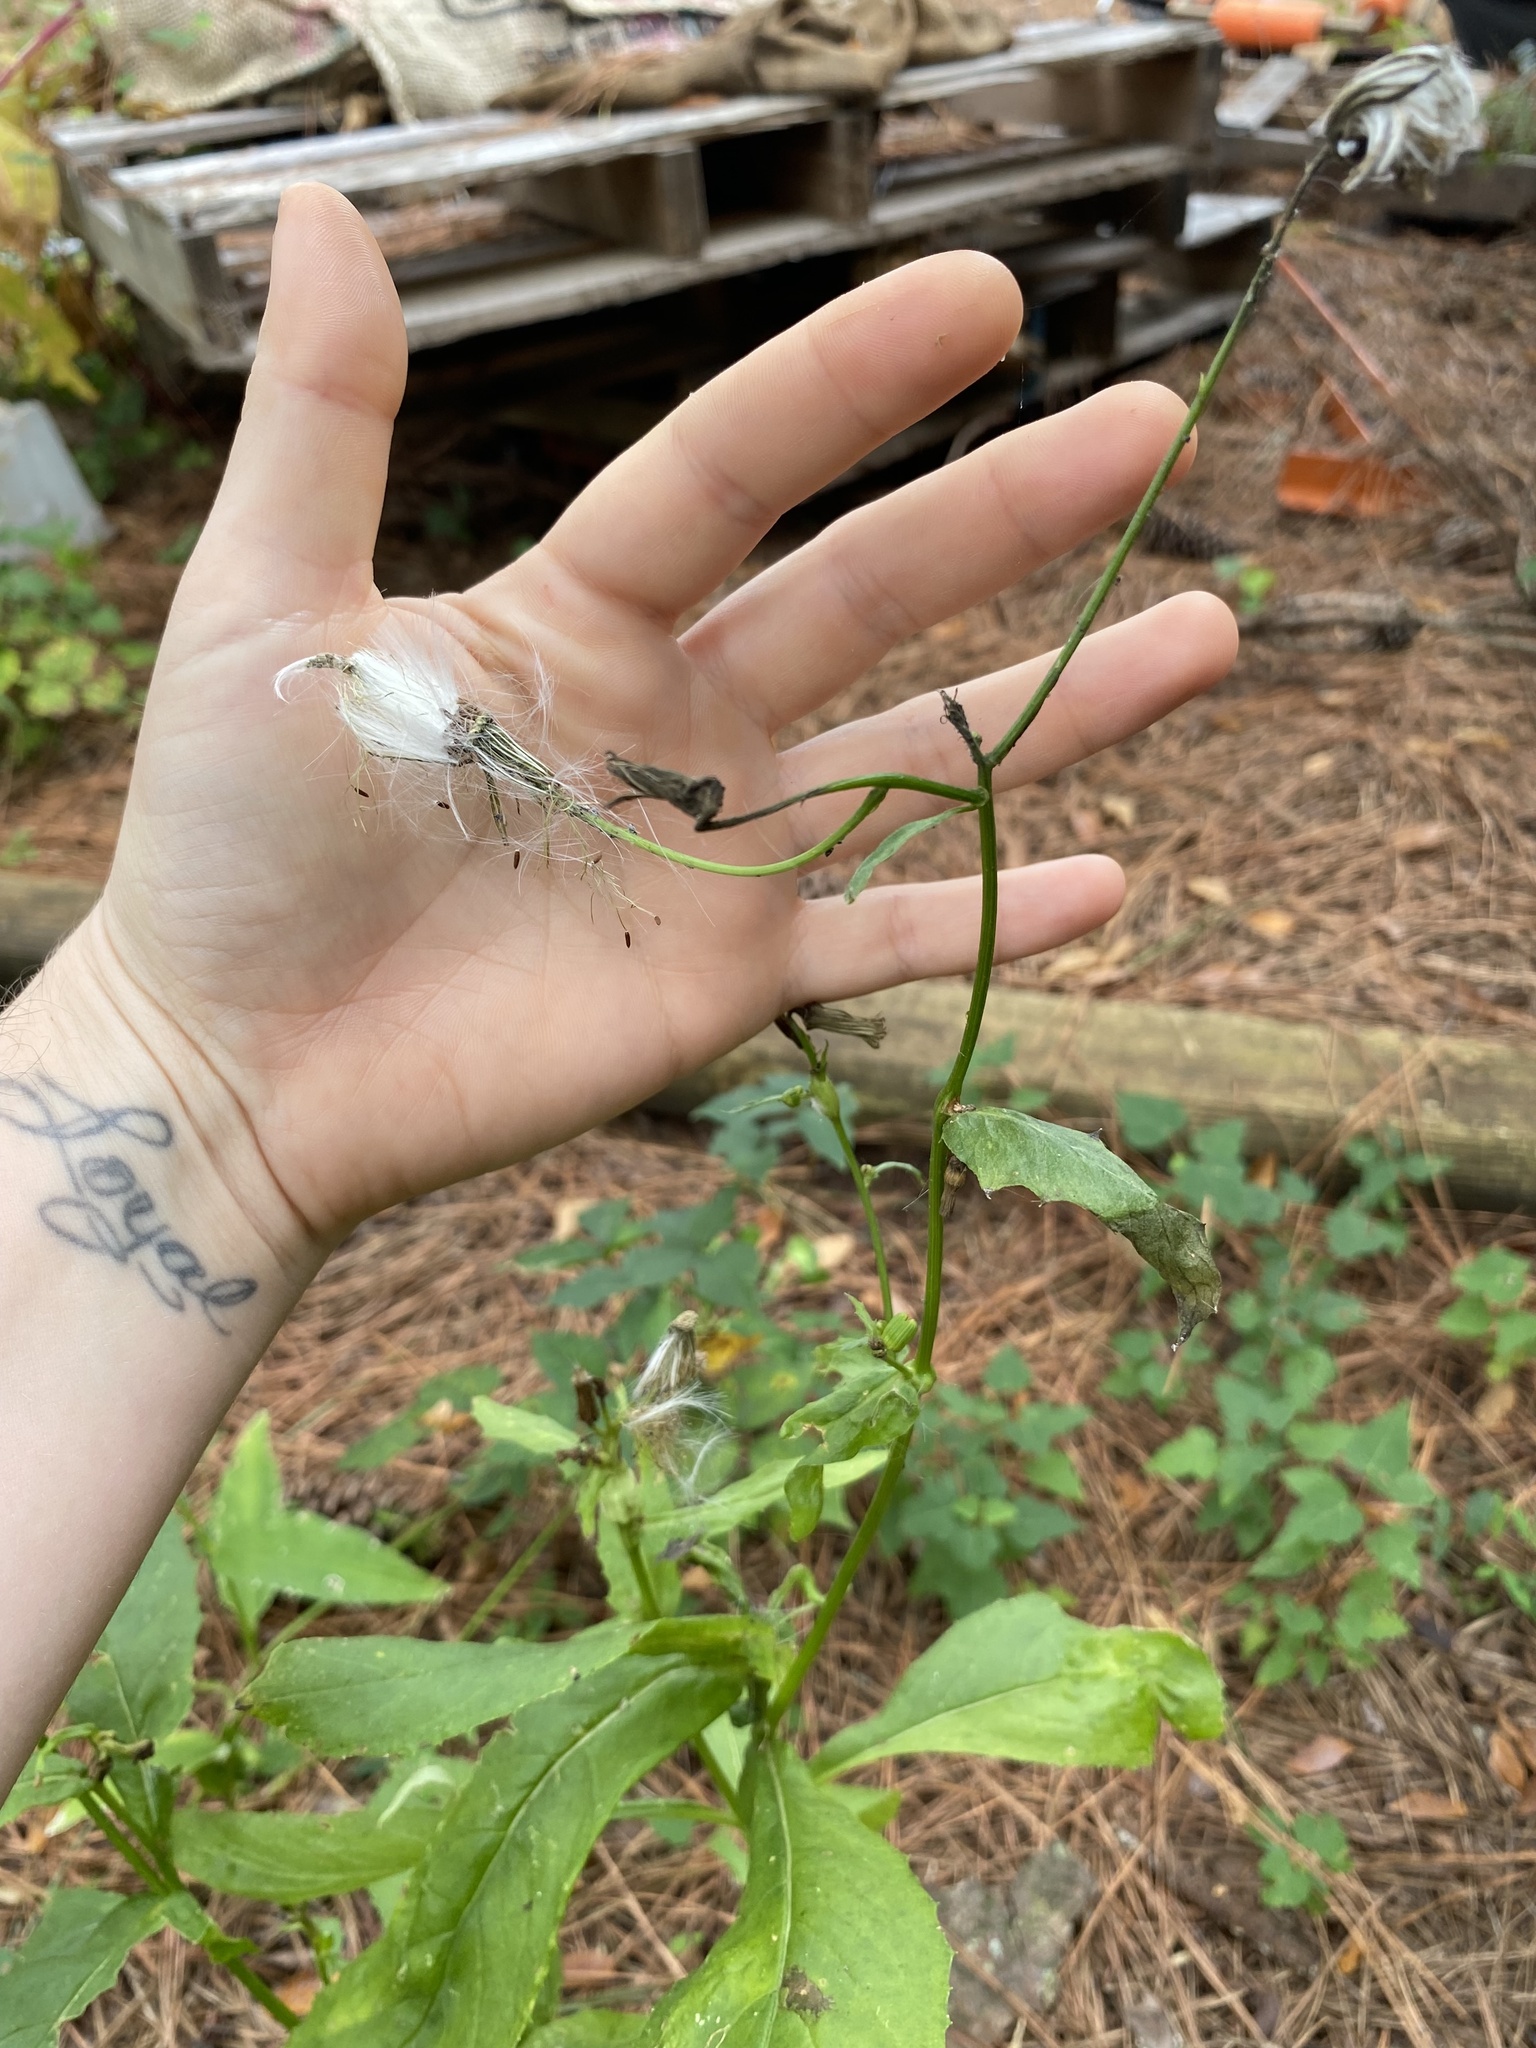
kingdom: Plantae
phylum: Tracheophyta
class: Magnoliopsida
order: Asterales
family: Asteraceae
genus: Erechtites
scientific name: Erechtites hieraciifolius
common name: American burnweed
